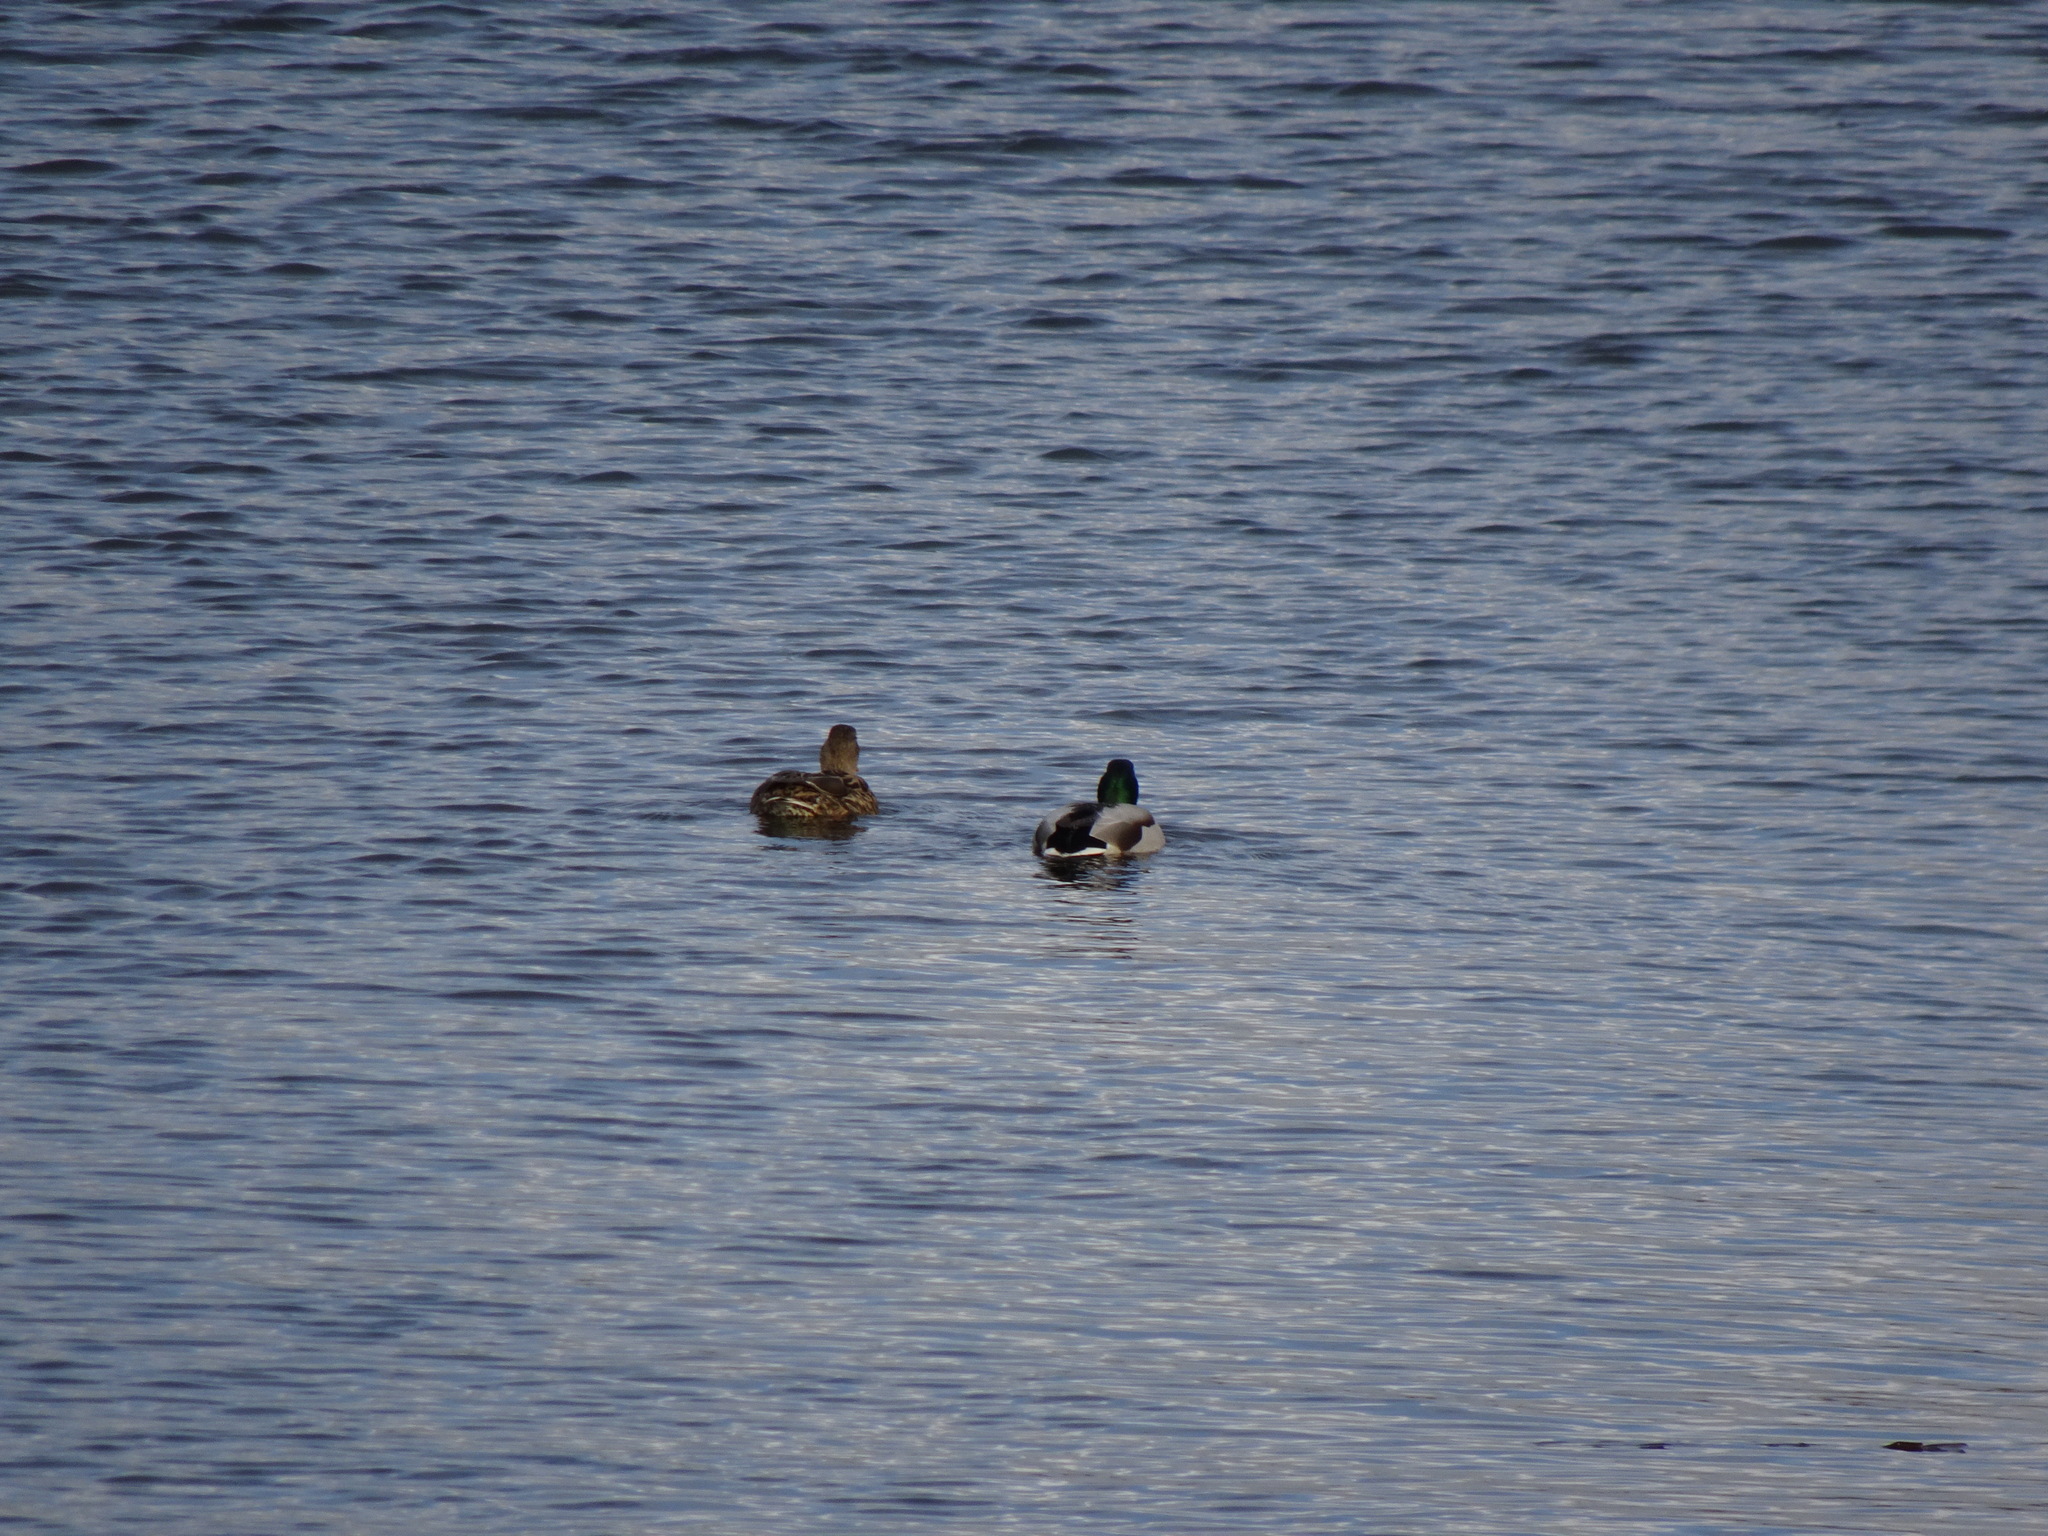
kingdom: Animalia
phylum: Chordata
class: Aves
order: Anseriformes
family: Anatidae
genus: Anas
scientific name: Anas platyrhynchos
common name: Mallard
